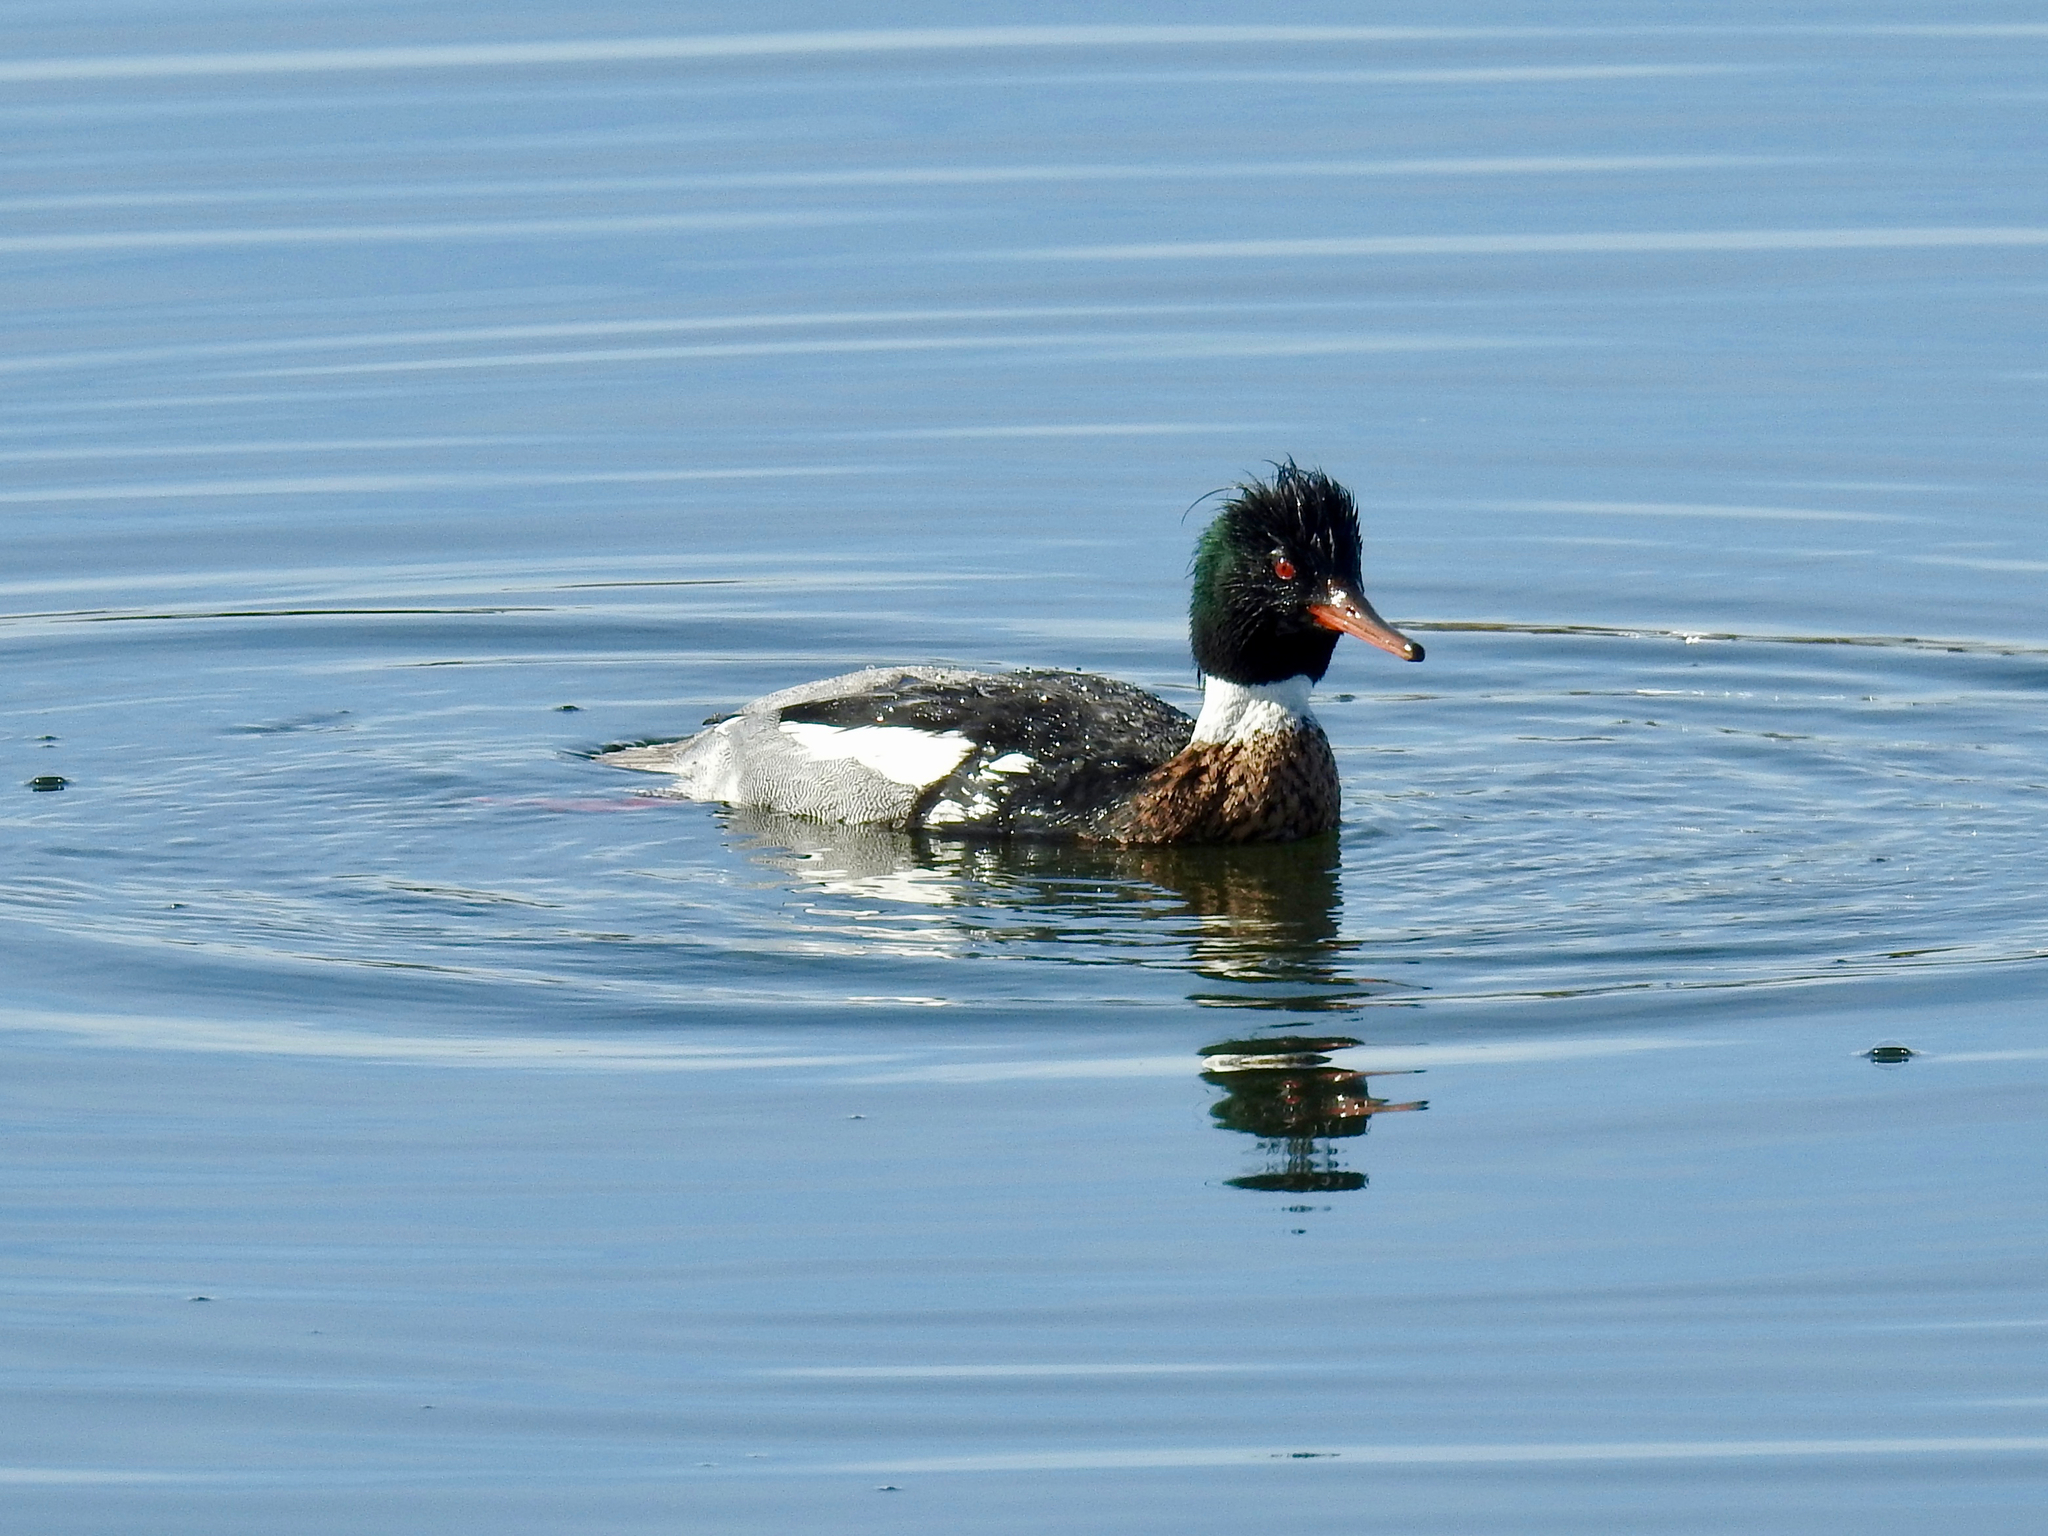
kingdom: Animalia
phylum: Chordata
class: Aves
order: Anseriformes
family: Anatidae
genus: Mergus
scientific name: Mergus serrator
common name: Red-breasted merganser
